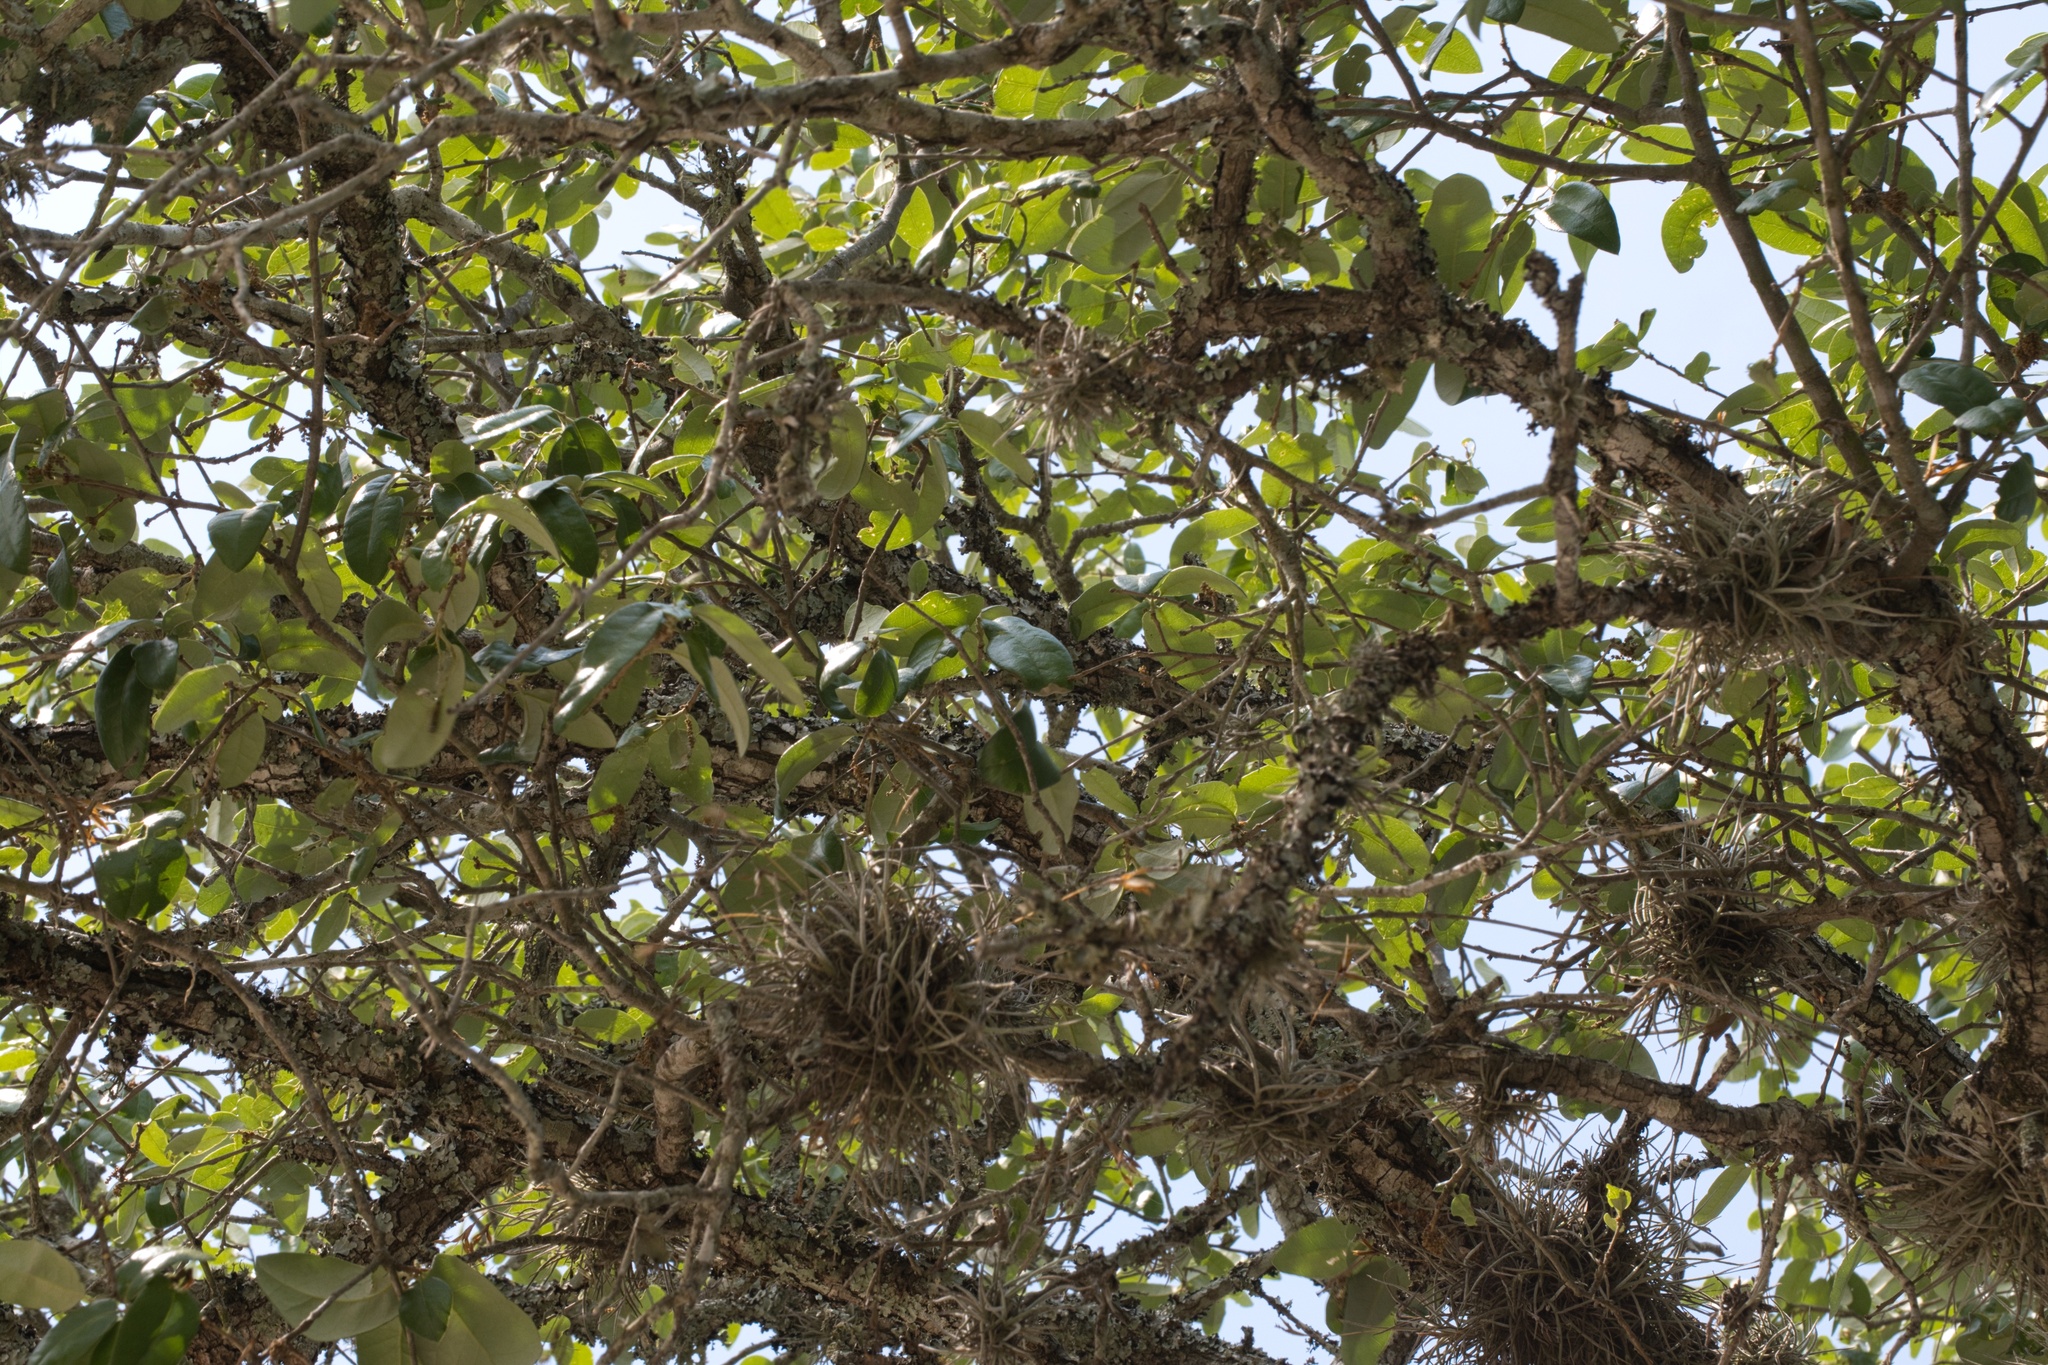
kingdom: Plantae
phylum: Tracheophyta
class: Magnoliopsida
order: Fagales
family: Fagaceae
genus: Quercus
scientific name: Quercus fusiformis
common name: Texas live oak
